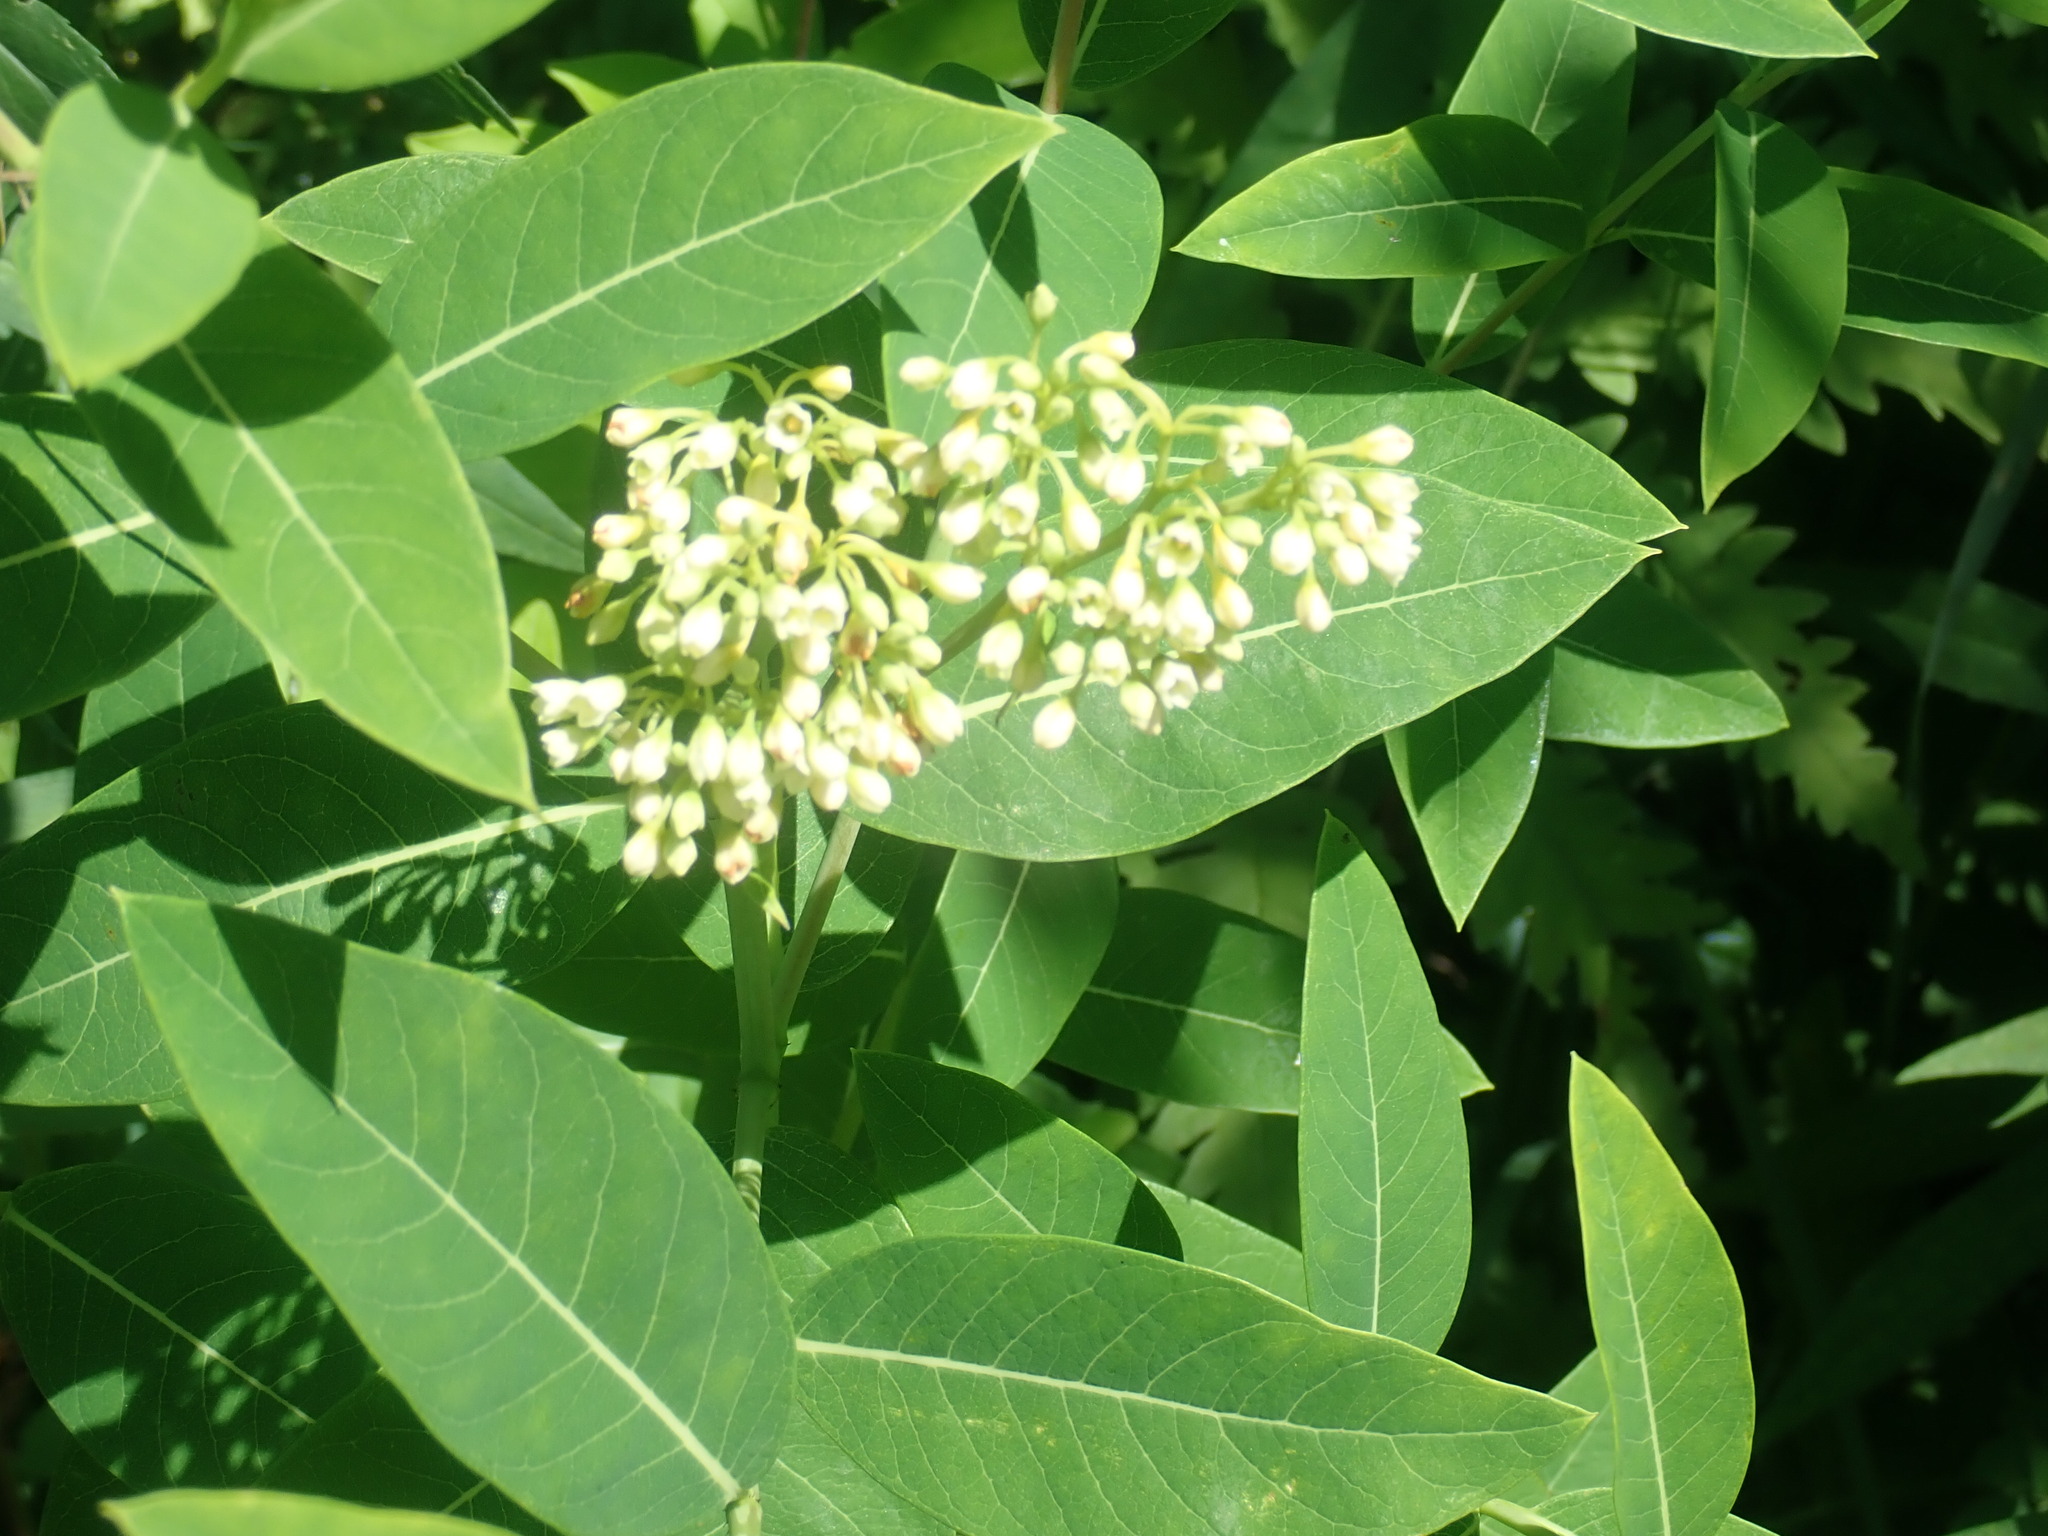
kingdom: Plantae
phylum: Tracheophyta
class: Magnoliopsida
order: Gentianales
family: Apocynaceae
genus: Apocynum
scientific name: Apocynum cannabinum
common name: Hemp dogbane
